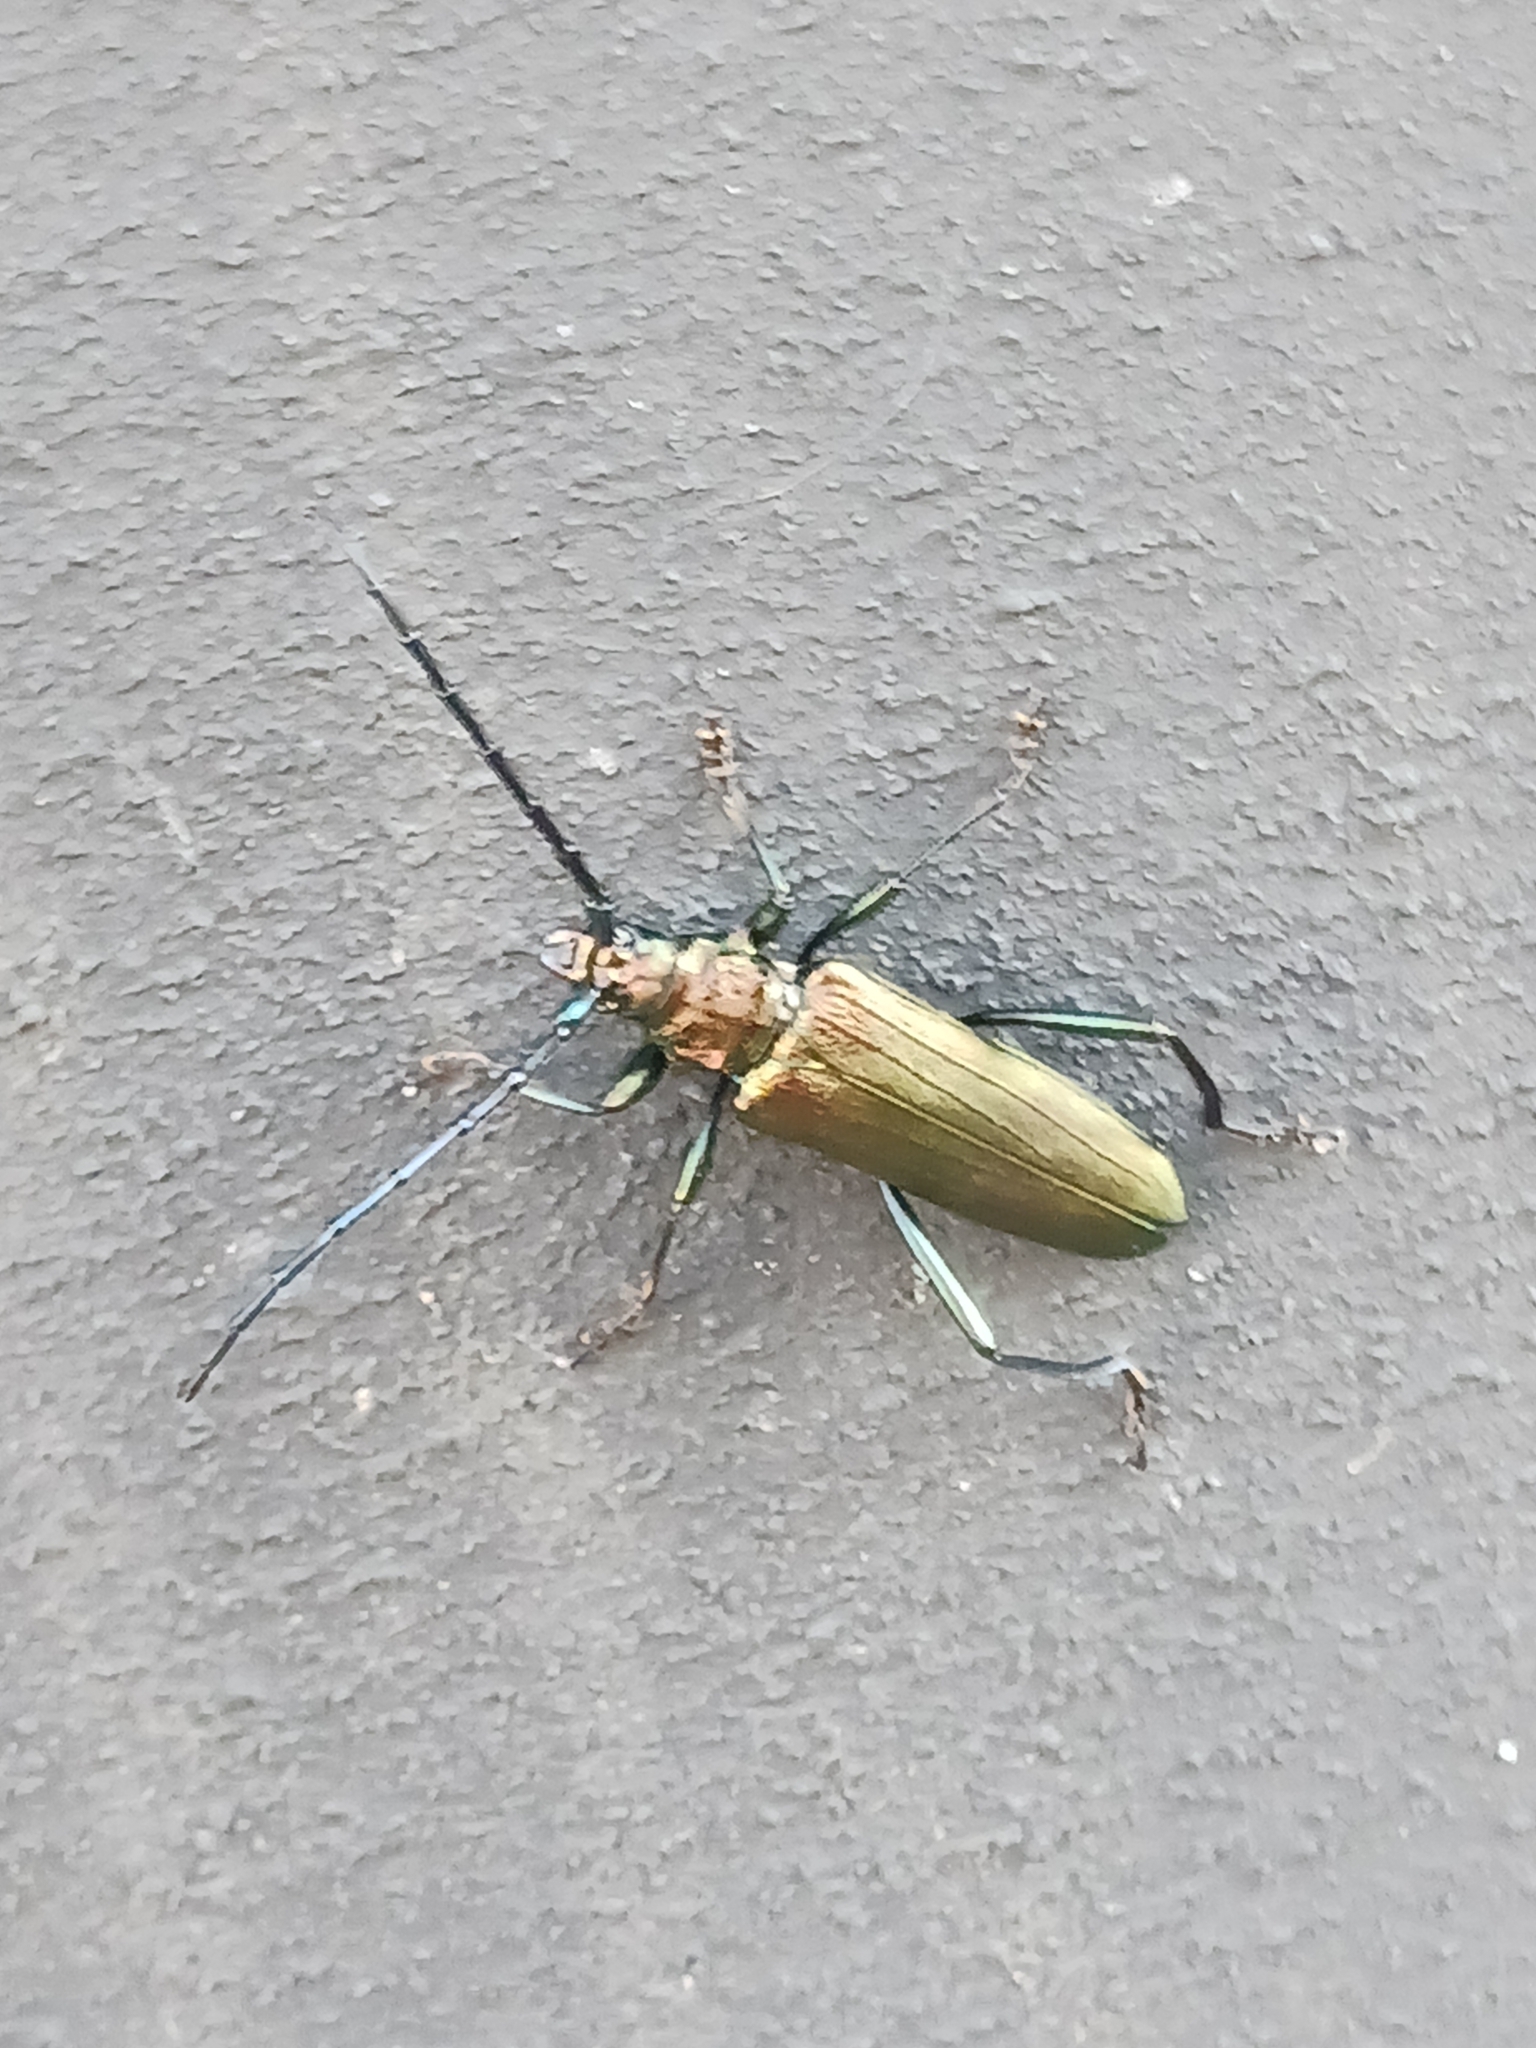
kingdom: Animalia
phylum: Arthropoda
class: Insecta
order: Coleoptera
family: Cerambycidae
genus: Aromia
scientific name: Aromia moschata
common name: Musk beetle
